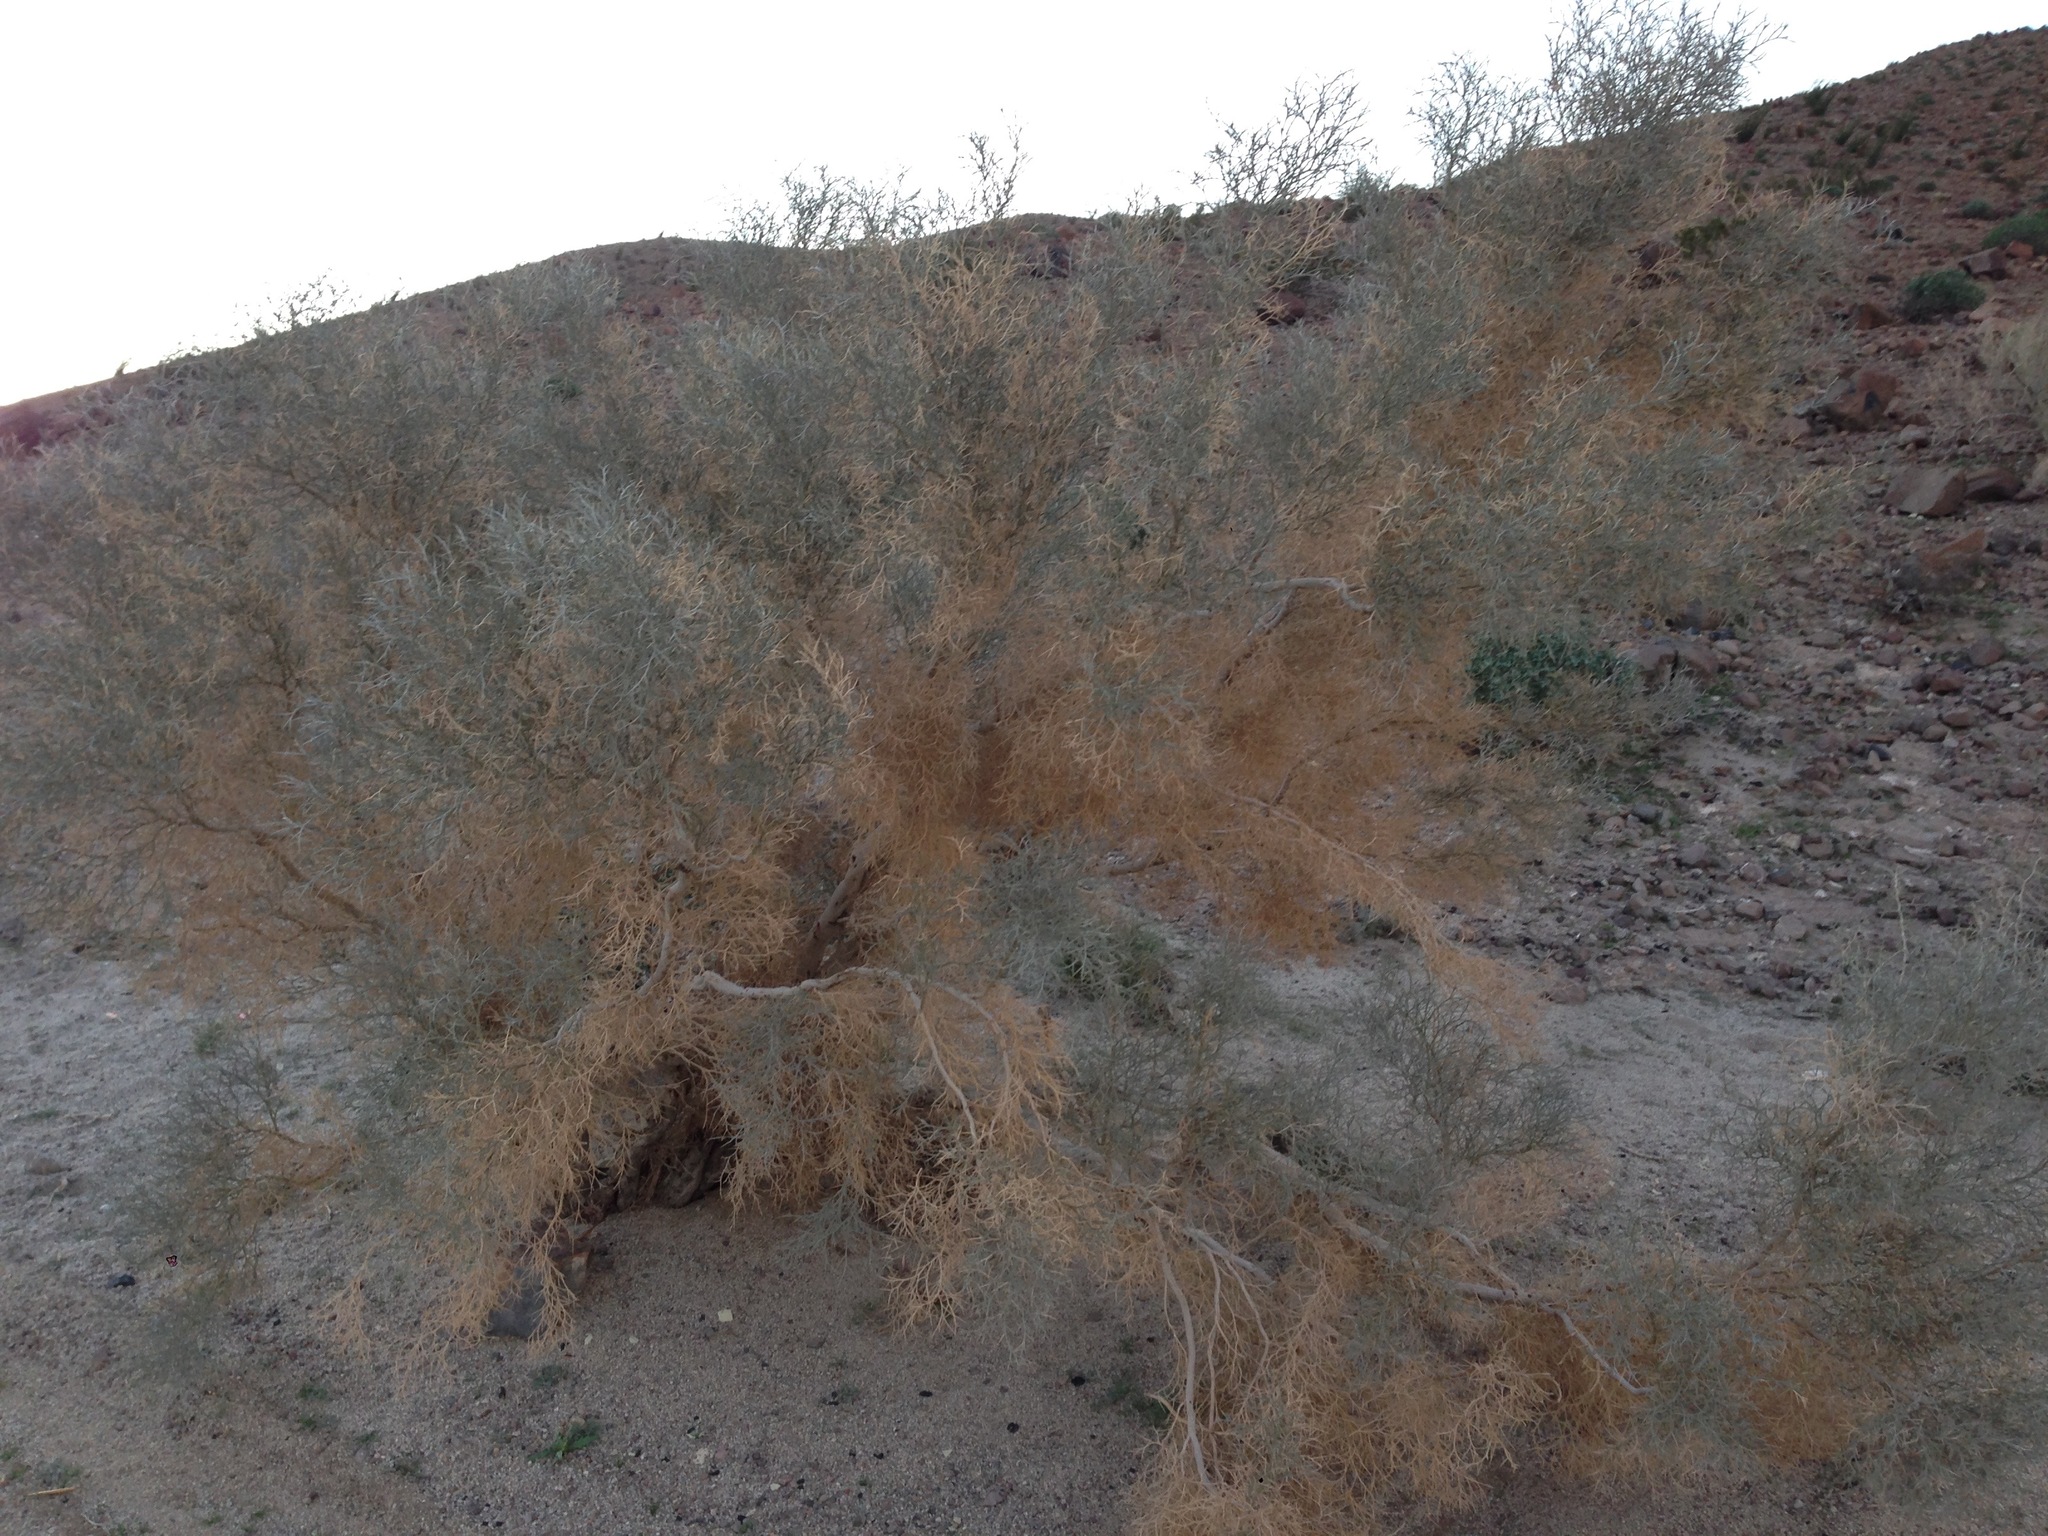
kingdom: Plantae
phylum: Tracheophyta
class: Magnoliopsida
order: Fabales
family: Fabaceae
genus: Psorothamnus
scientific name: Psorothamnus spinosus
